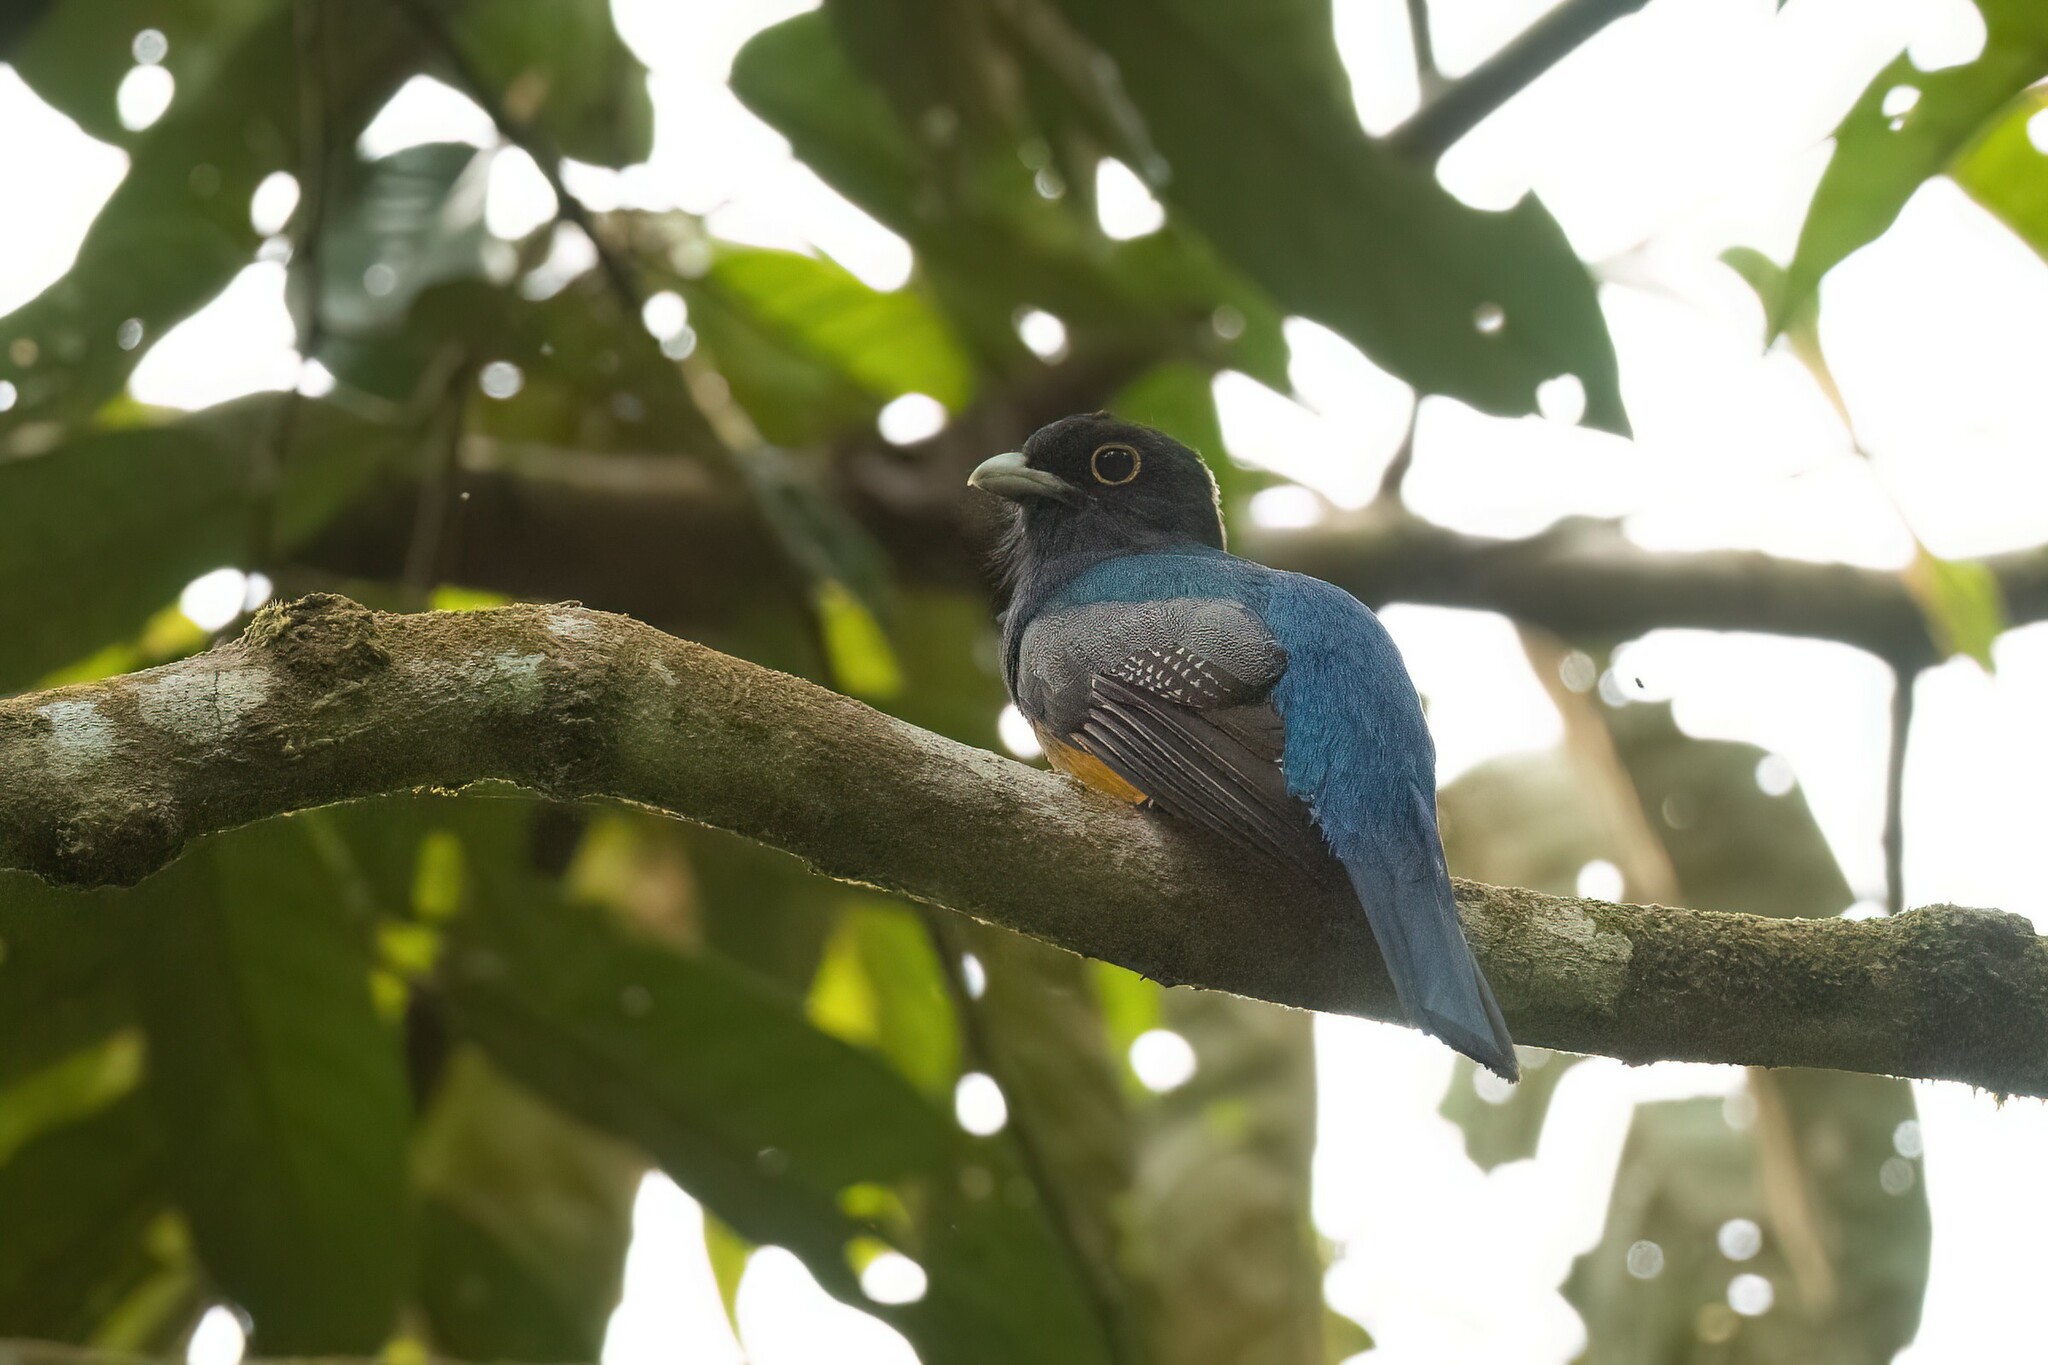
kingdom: Animalia
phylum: Chordata
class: Aves
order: Trogoniformes
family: Trogonidae
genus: Trogon
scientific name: Trogon caligatus
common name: Gartered trogon
